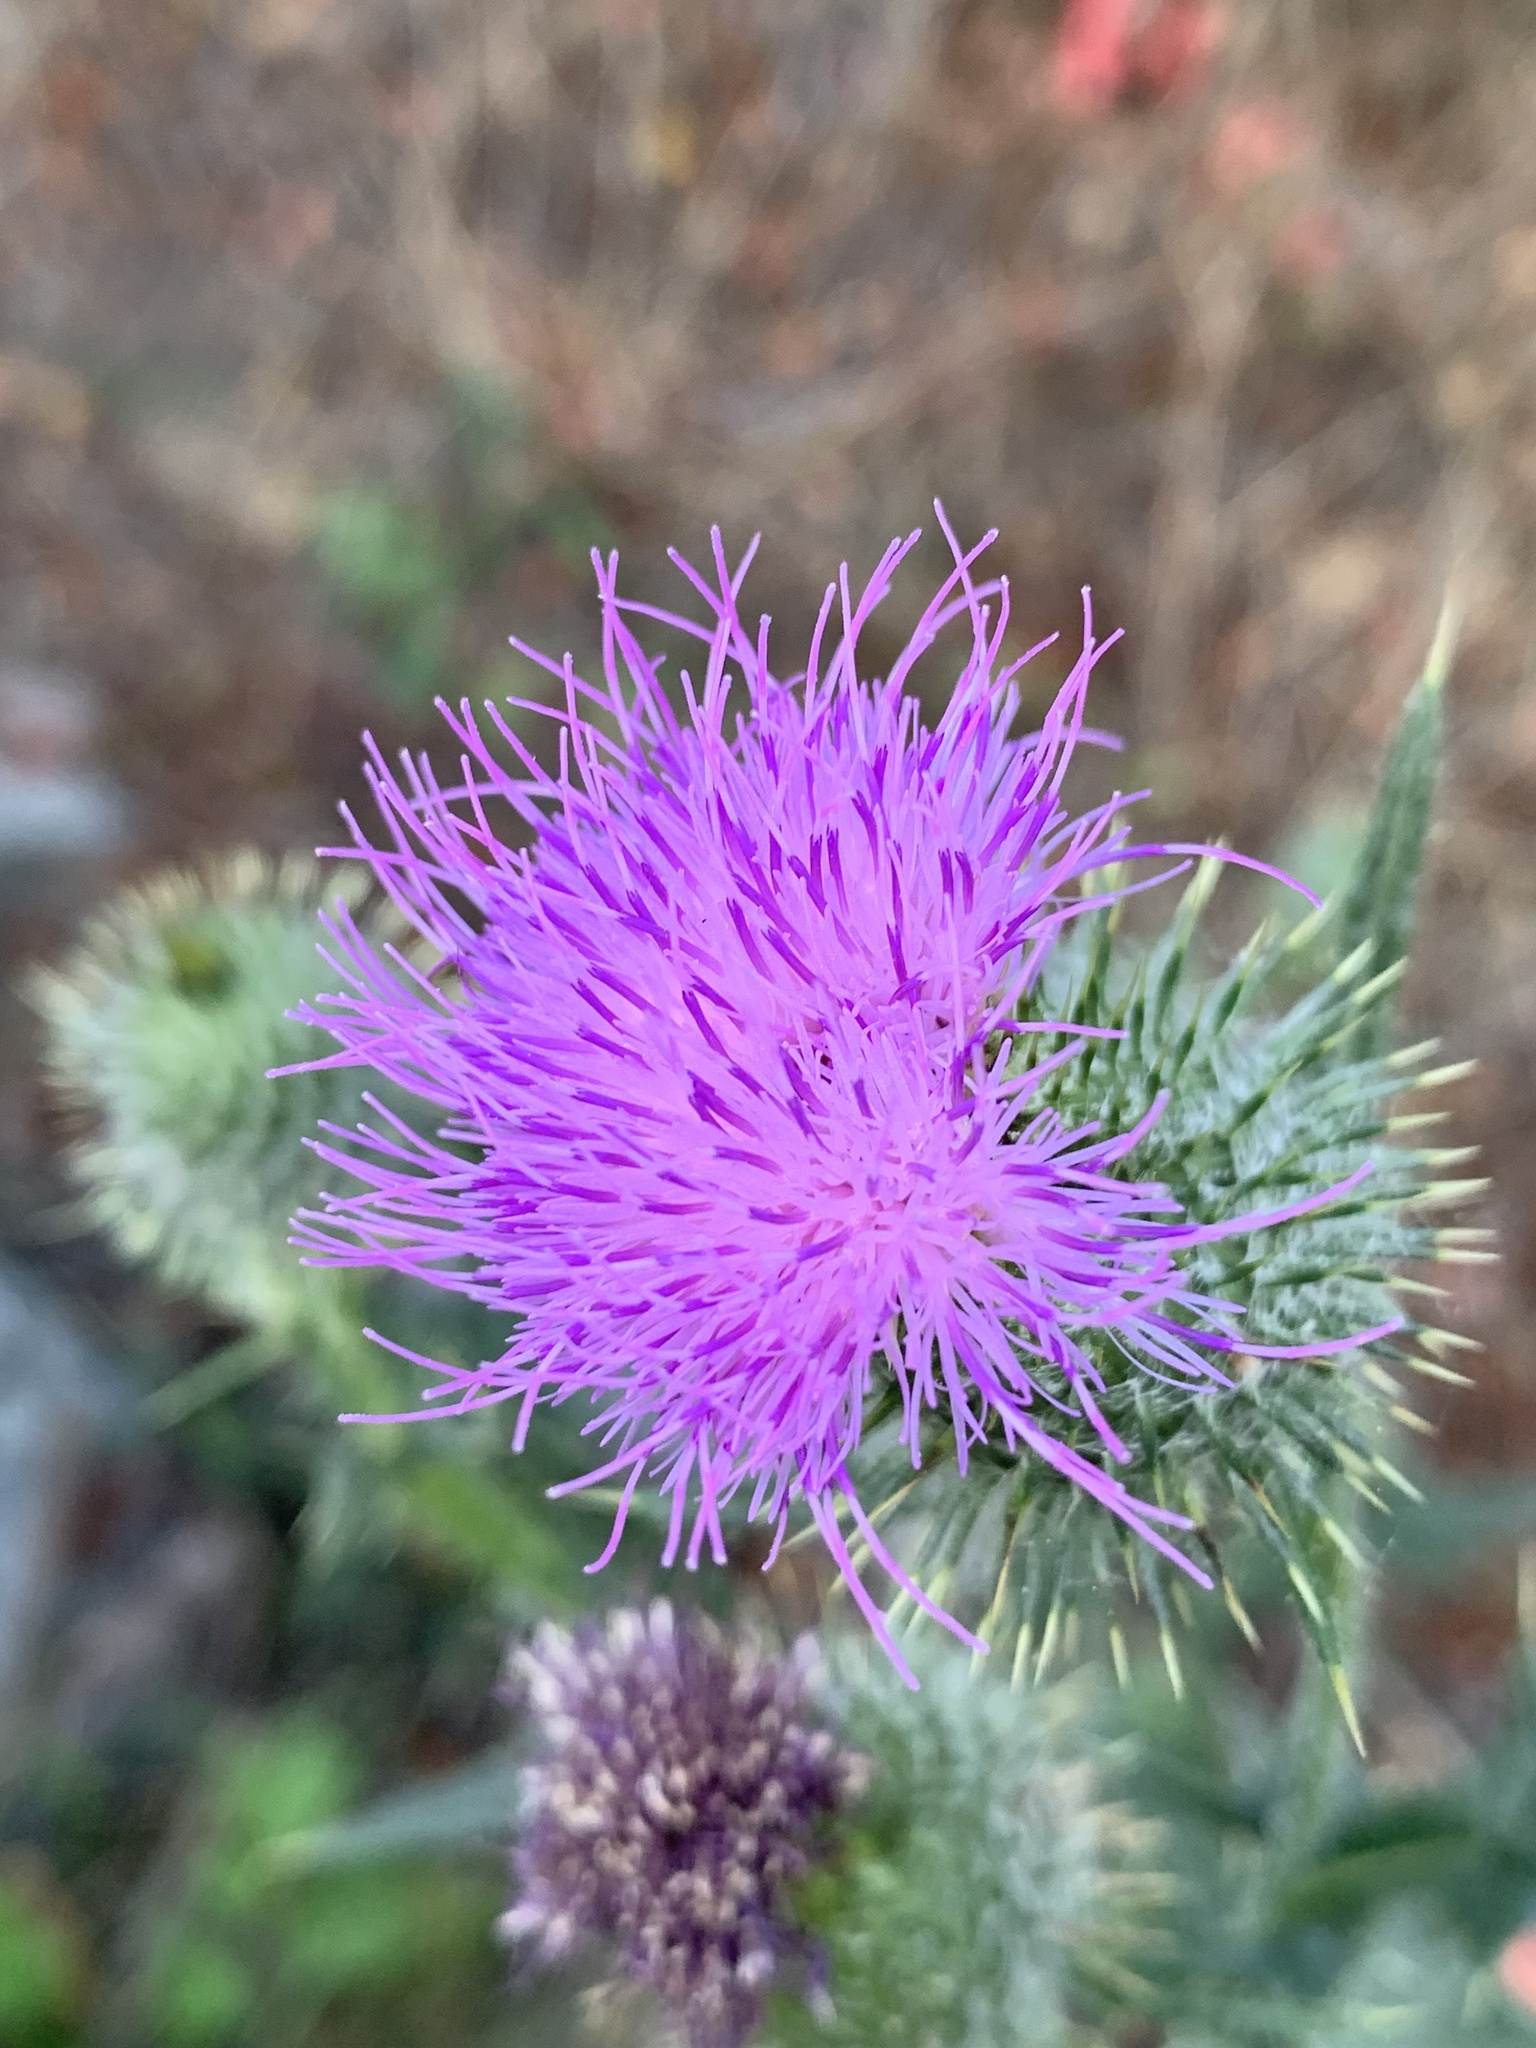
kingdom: Plantae
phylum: Tracheophyta
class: Magnoliopsida
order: Asterales
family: Asteraceae
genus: Cirsium
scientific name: Cirsium vulgare
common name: Bull thistle
